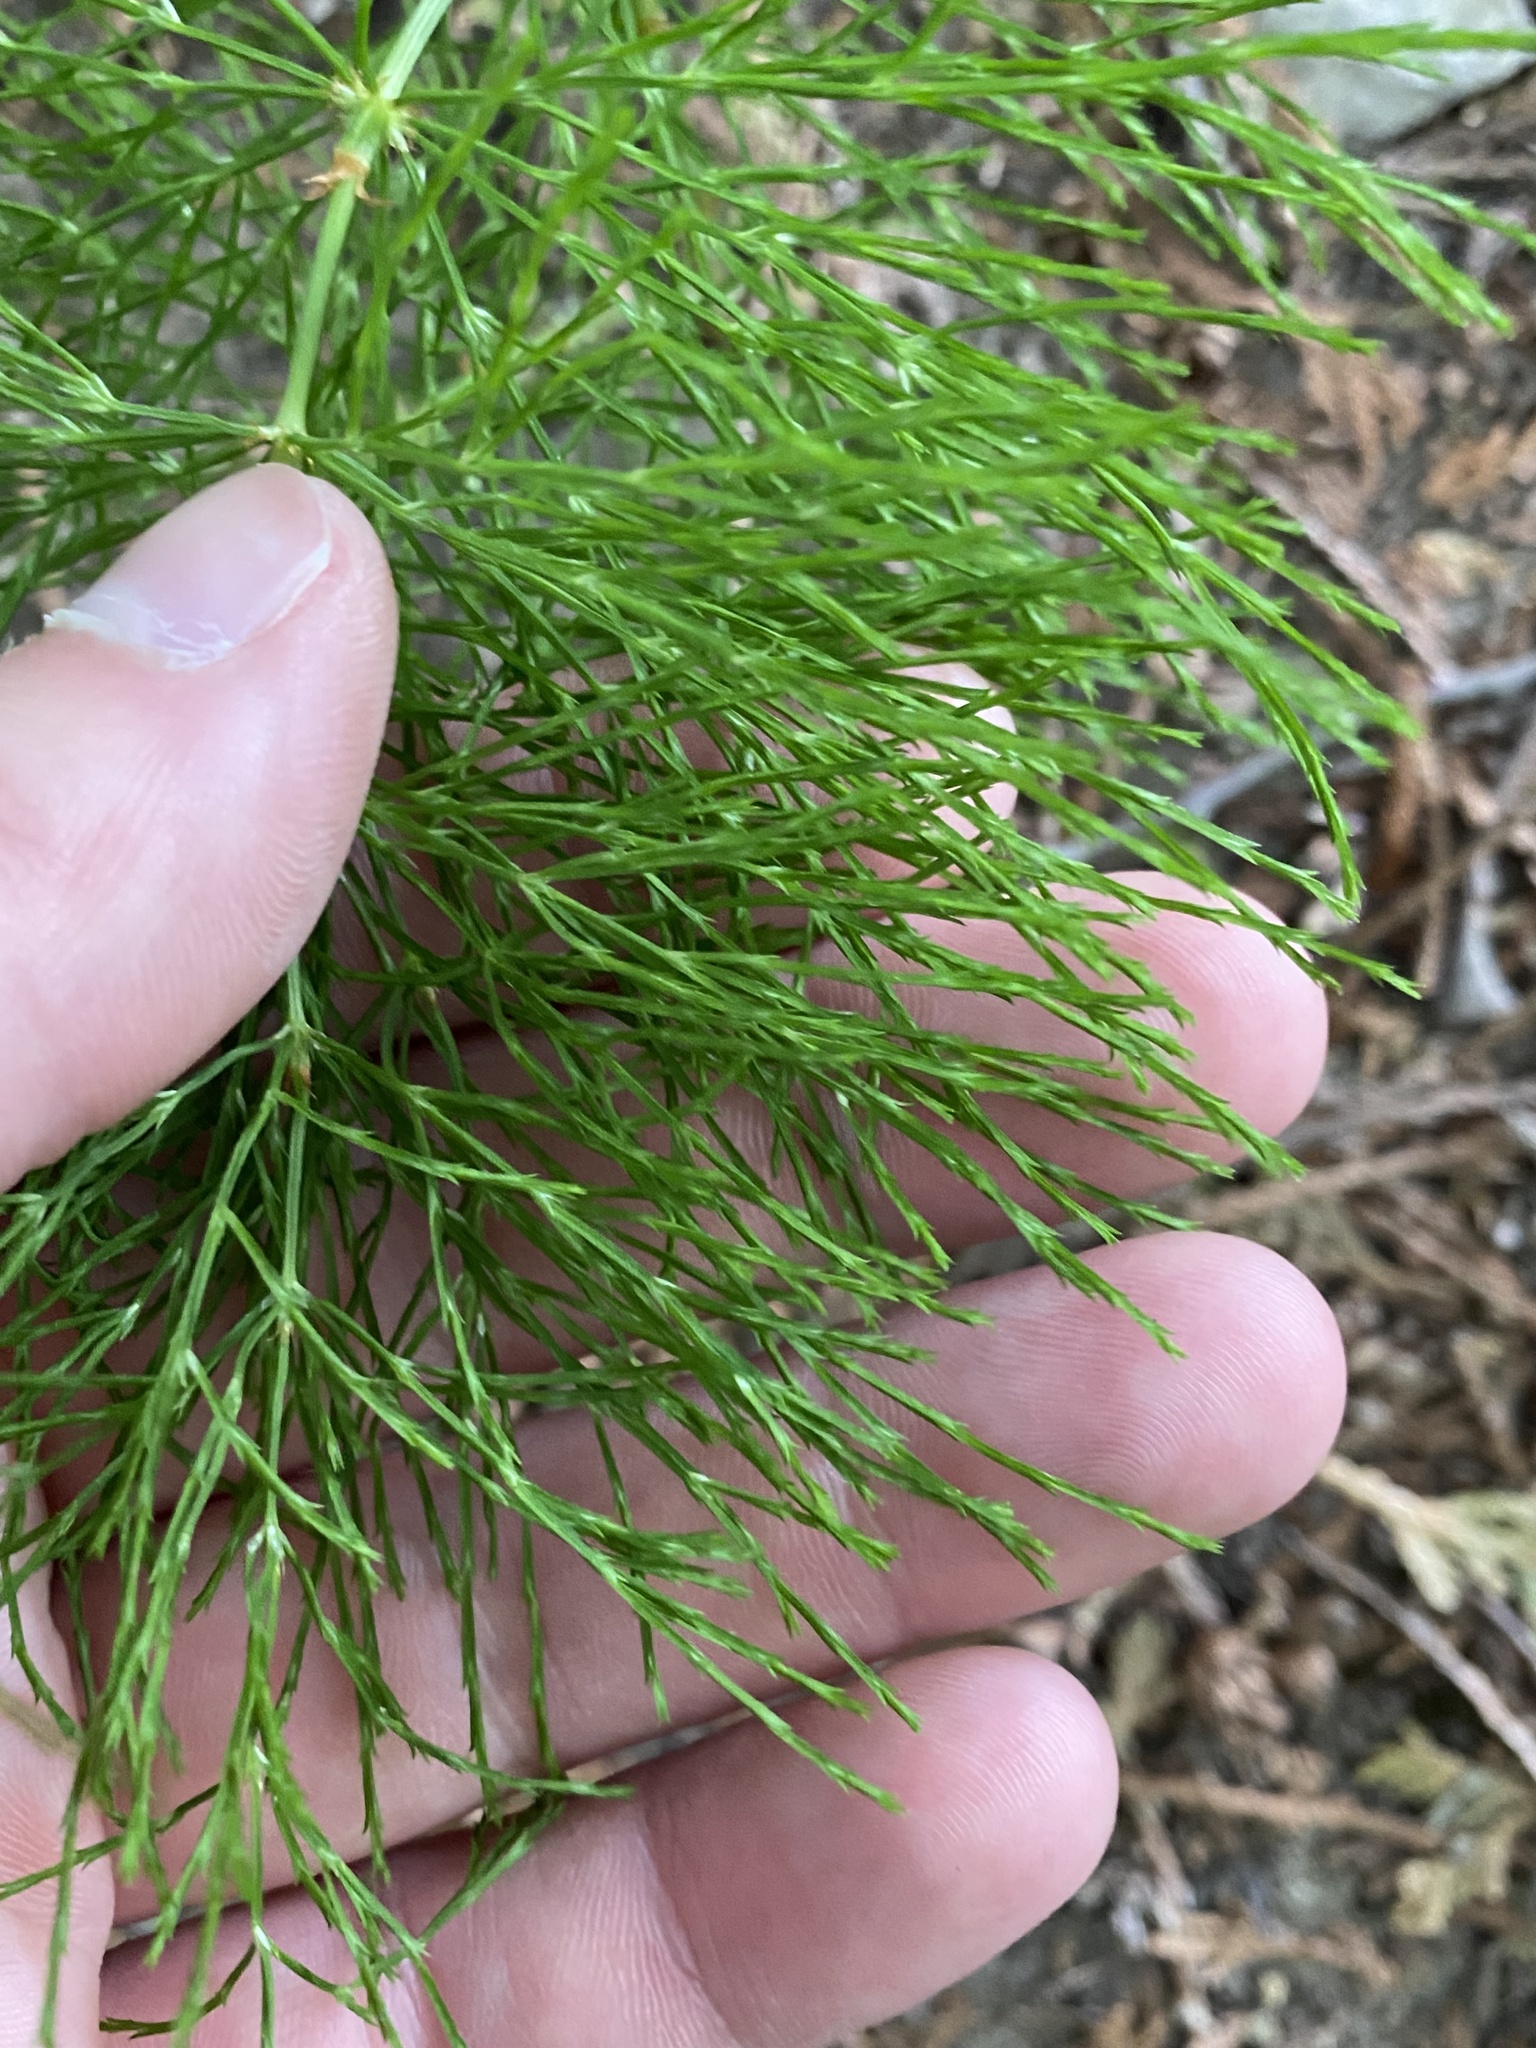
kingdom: Plantae
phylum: Tracheophyta
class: Polypodiopsida
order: Equisetales
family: Equisetaceae
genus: Equisetum
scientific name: Equisetum sylvaticum
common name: Wood horsetail
